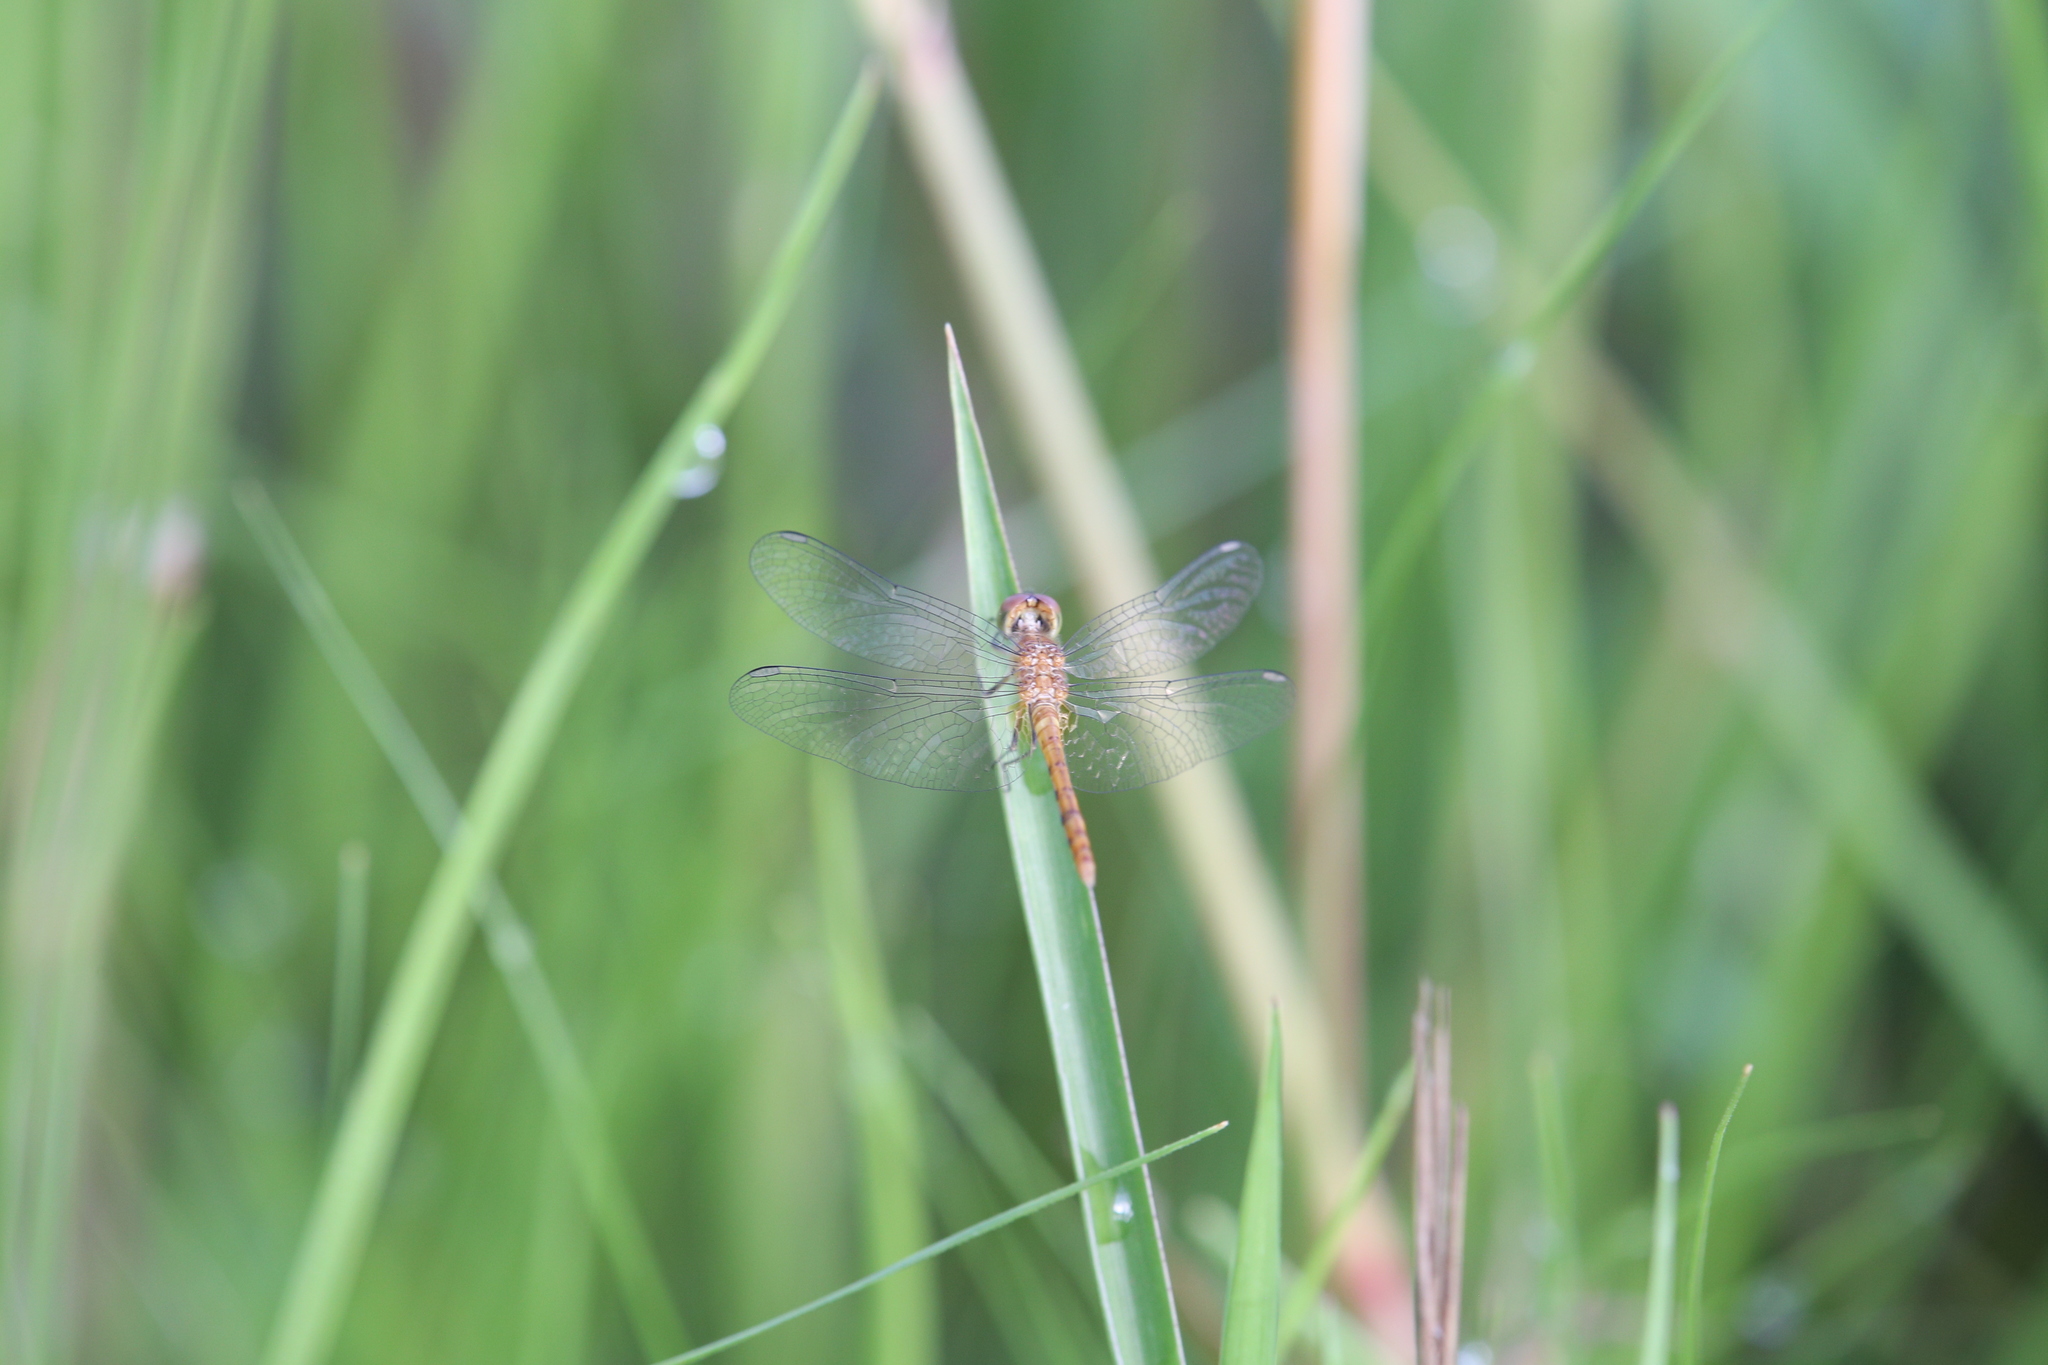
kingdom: Animalia
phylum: Arthropoda
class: Insecta
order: Odonata
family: Libellulidae
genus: Nannodiplax
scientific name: Nannodiplax rubra
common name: Pygmy percher
